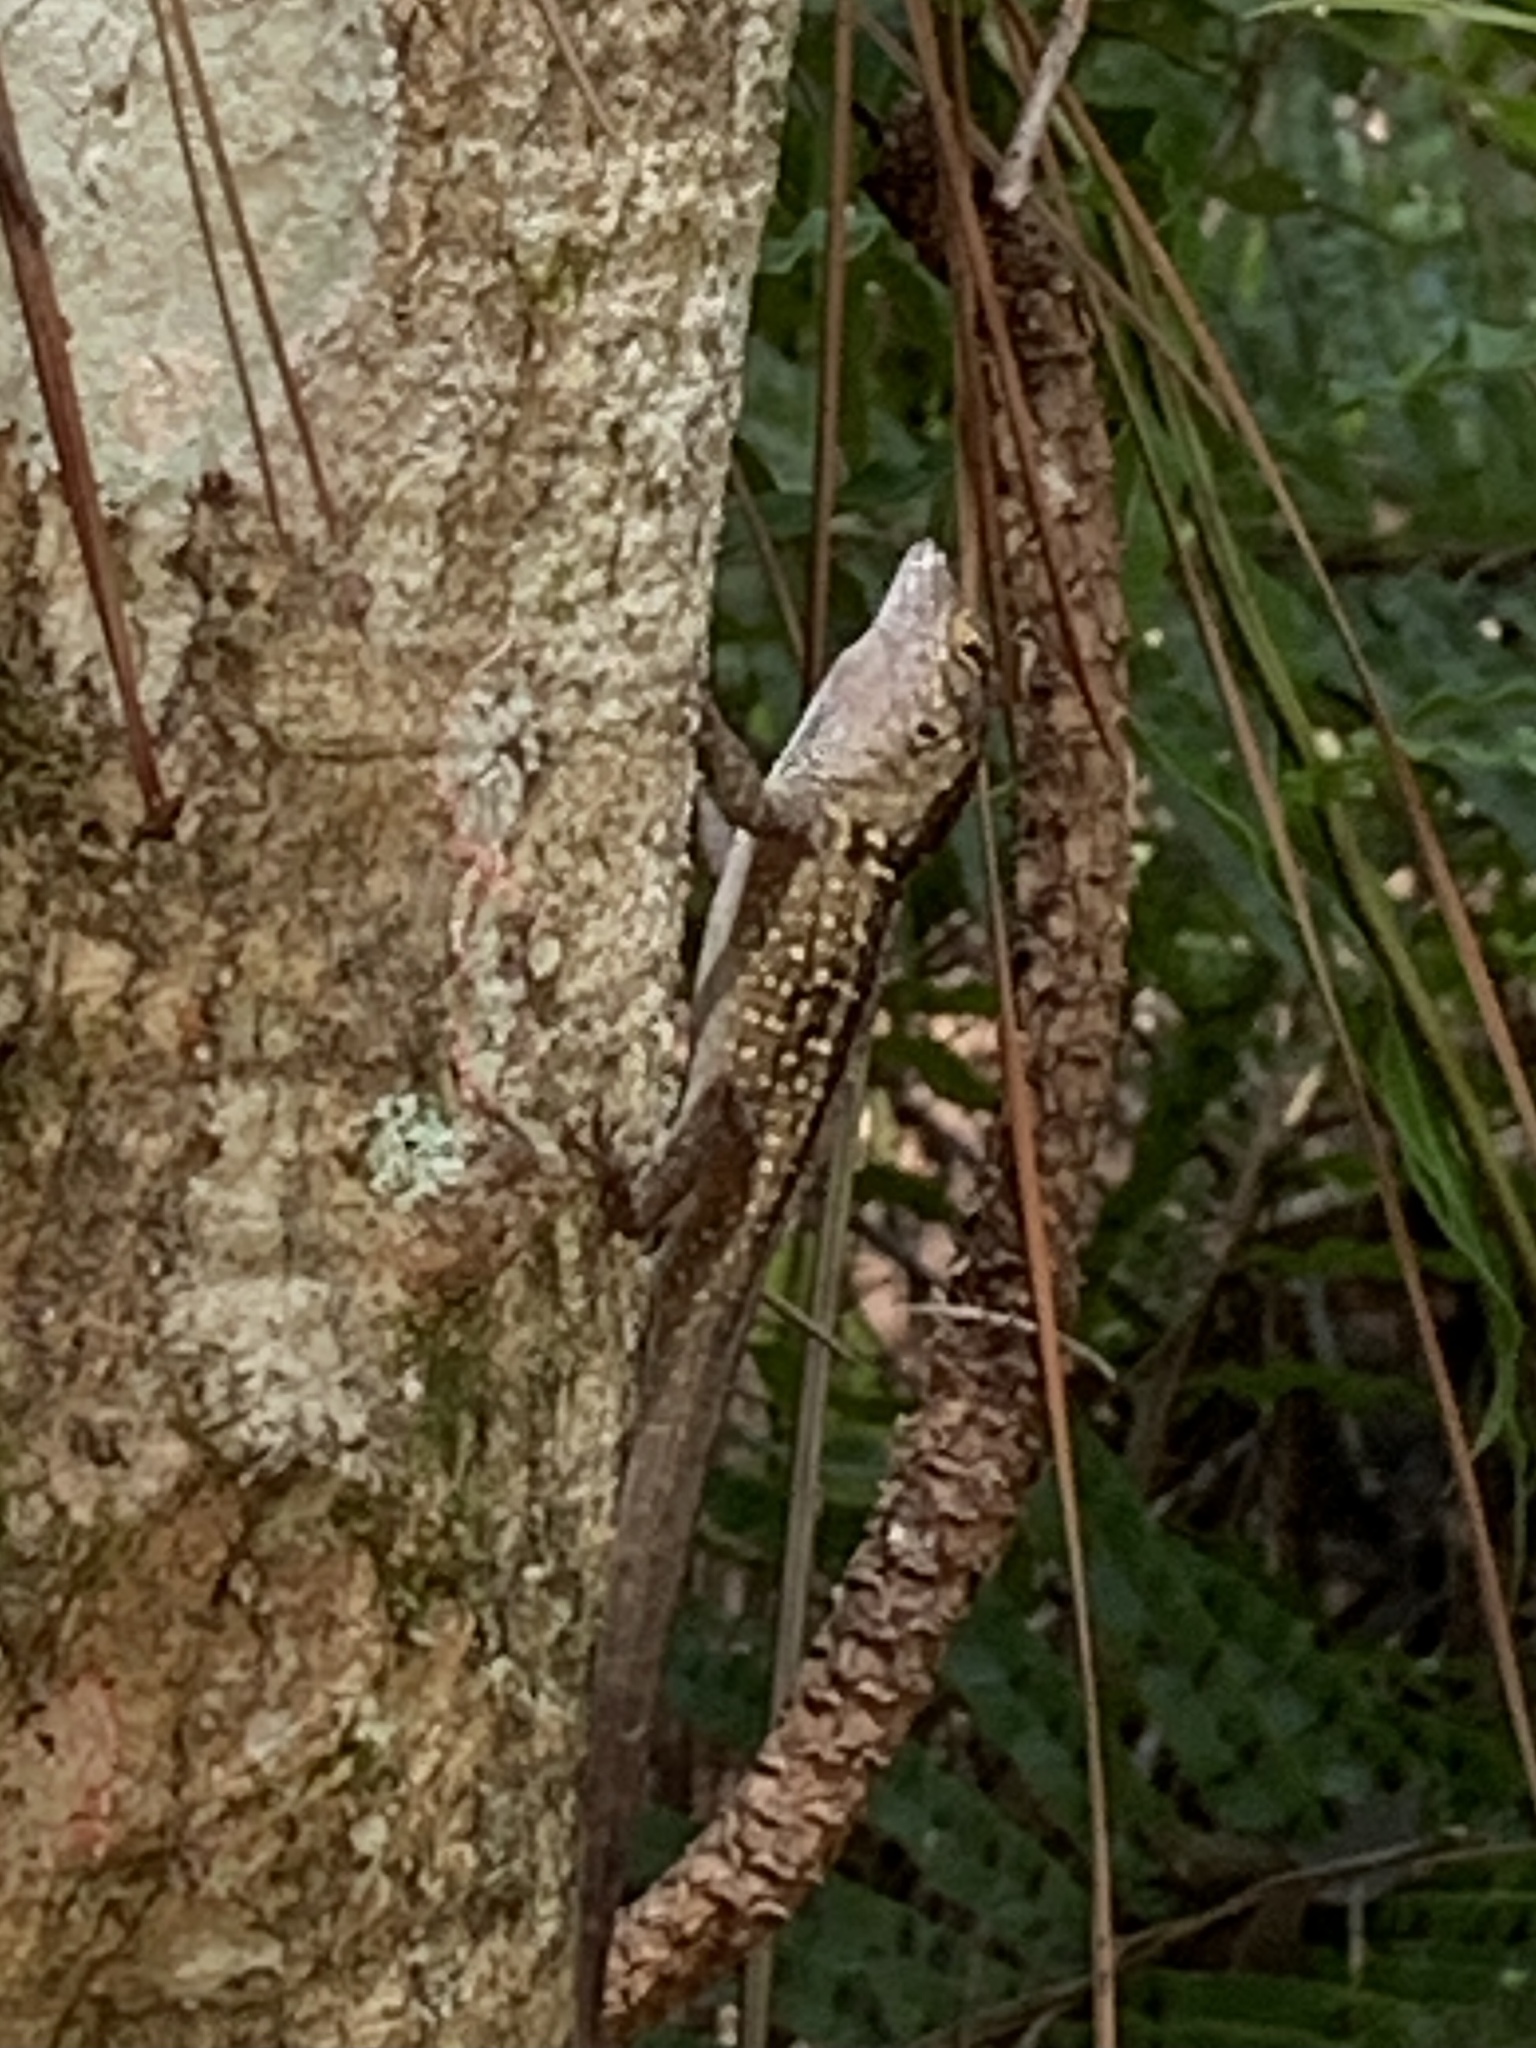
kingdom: Animalia
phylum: Chordata
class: Squamata
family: Dactyloidae
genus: Anolis
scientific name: Anolis sagrei
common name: Brown anole
